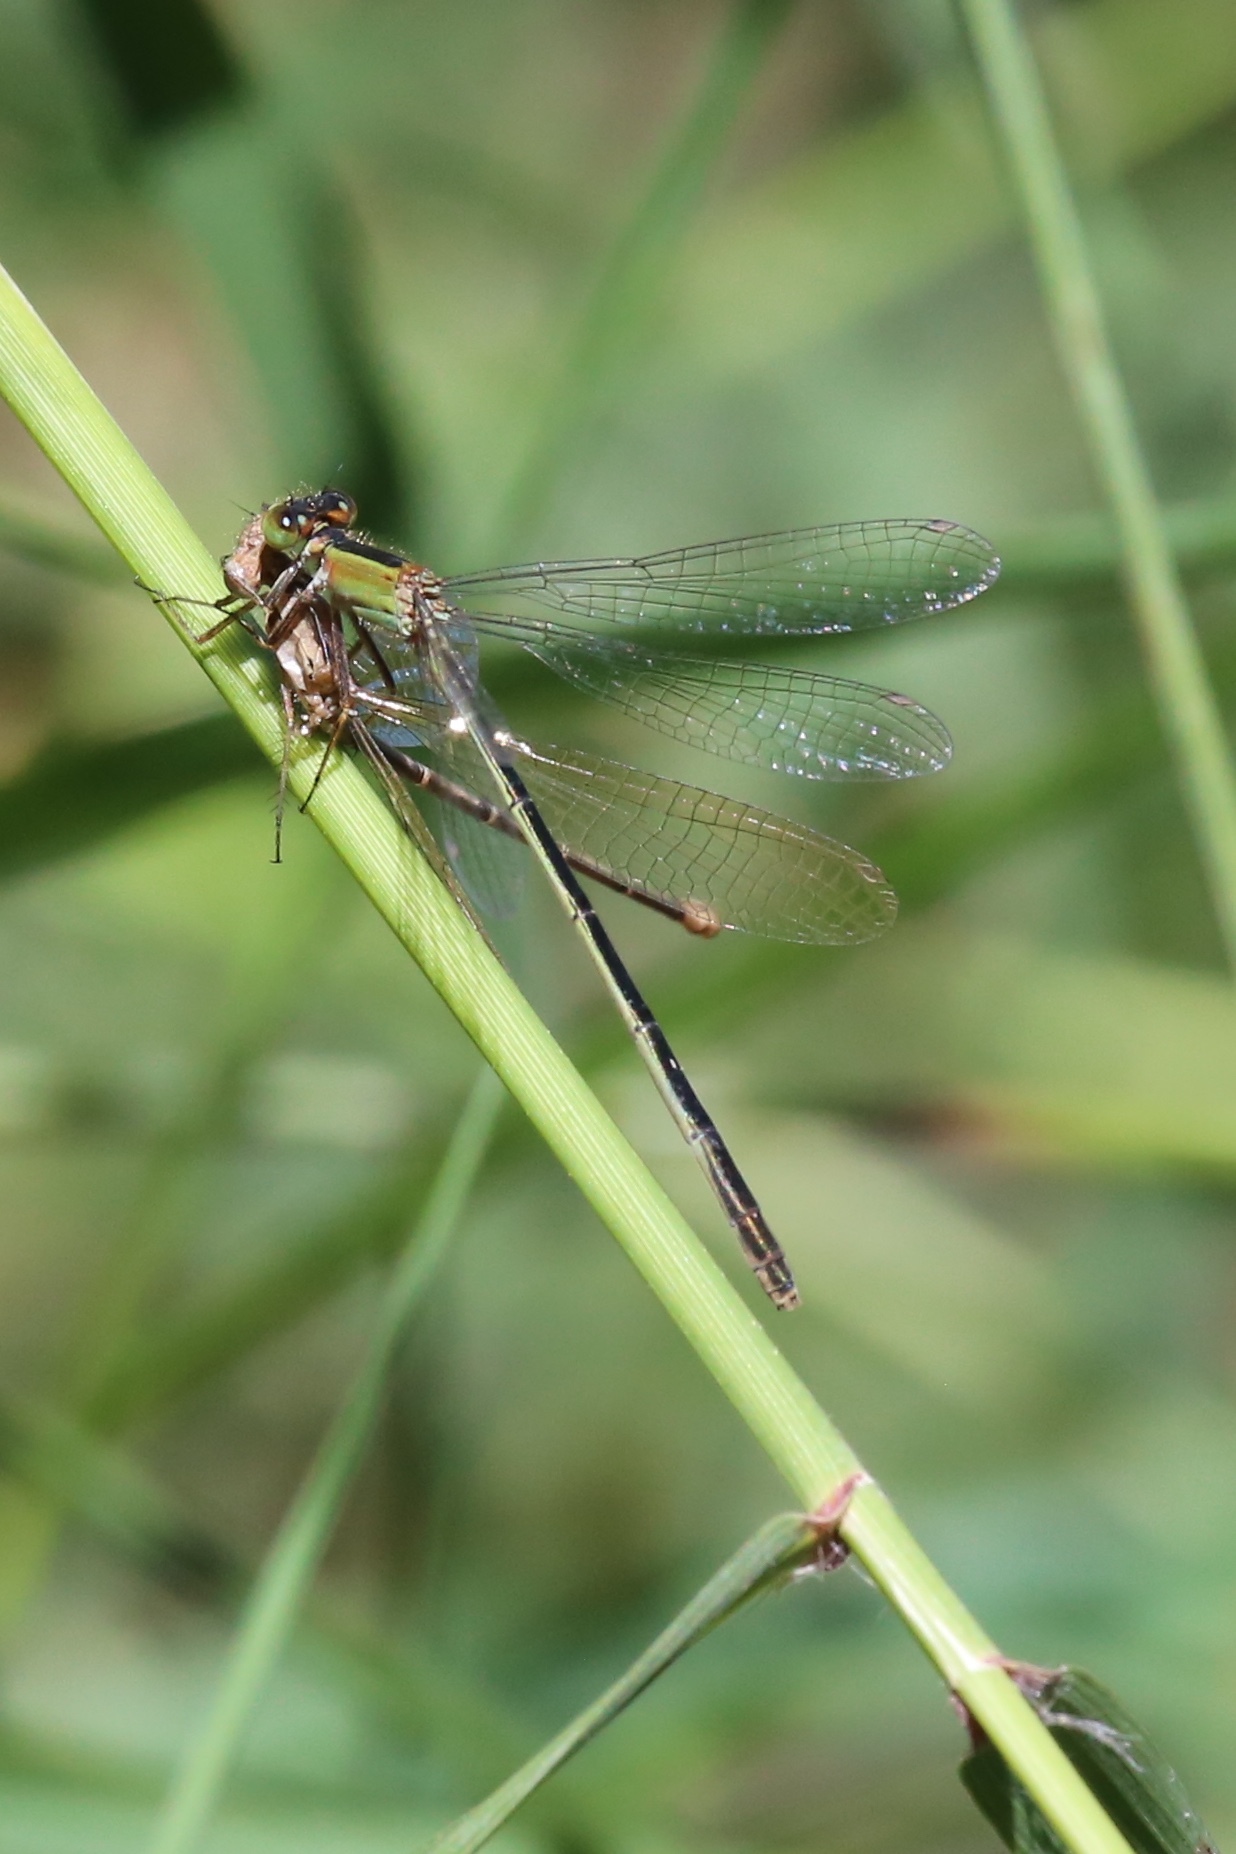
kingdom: Animalia
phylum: Arthropoda
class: Insecta
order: Odonata
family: Coenagrionidae
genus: Ischnura
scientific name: Ischnura ramburii
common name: Rambur's forktail
